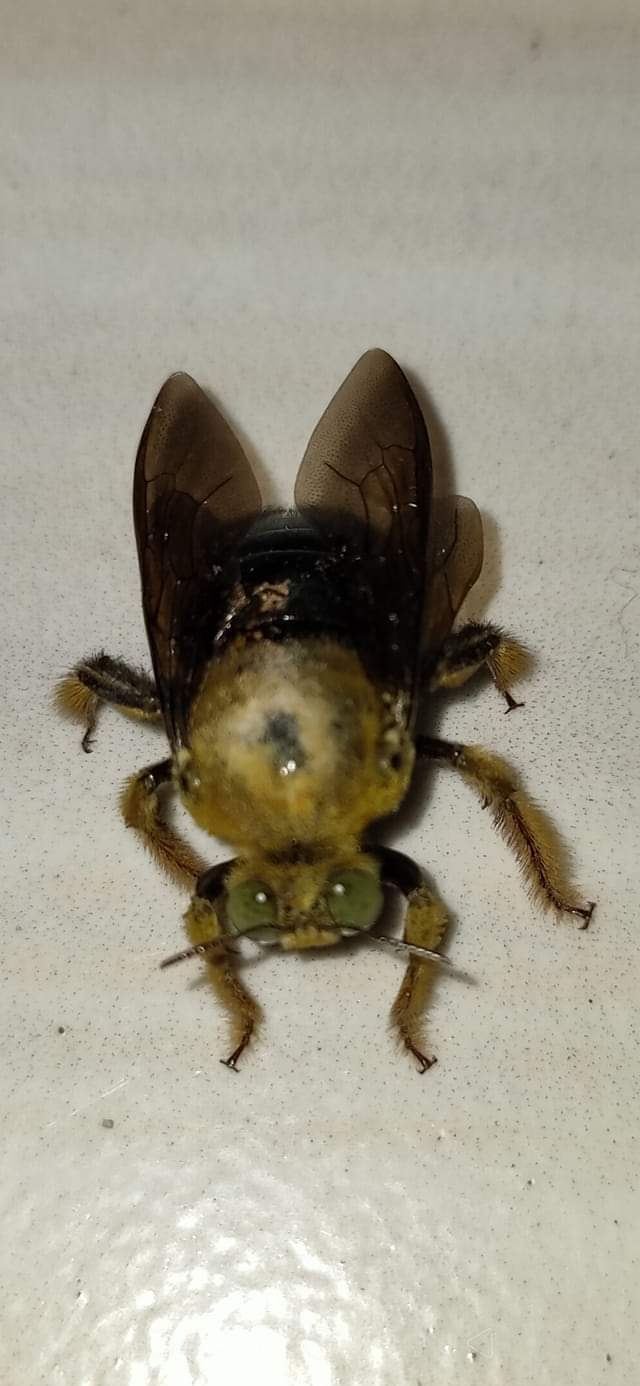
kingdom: Animalia
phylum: Arthropoda
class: Insecta
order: Hymenoptera
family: Apidae
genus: Xylocopa
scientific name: Xylocopa ocularis
